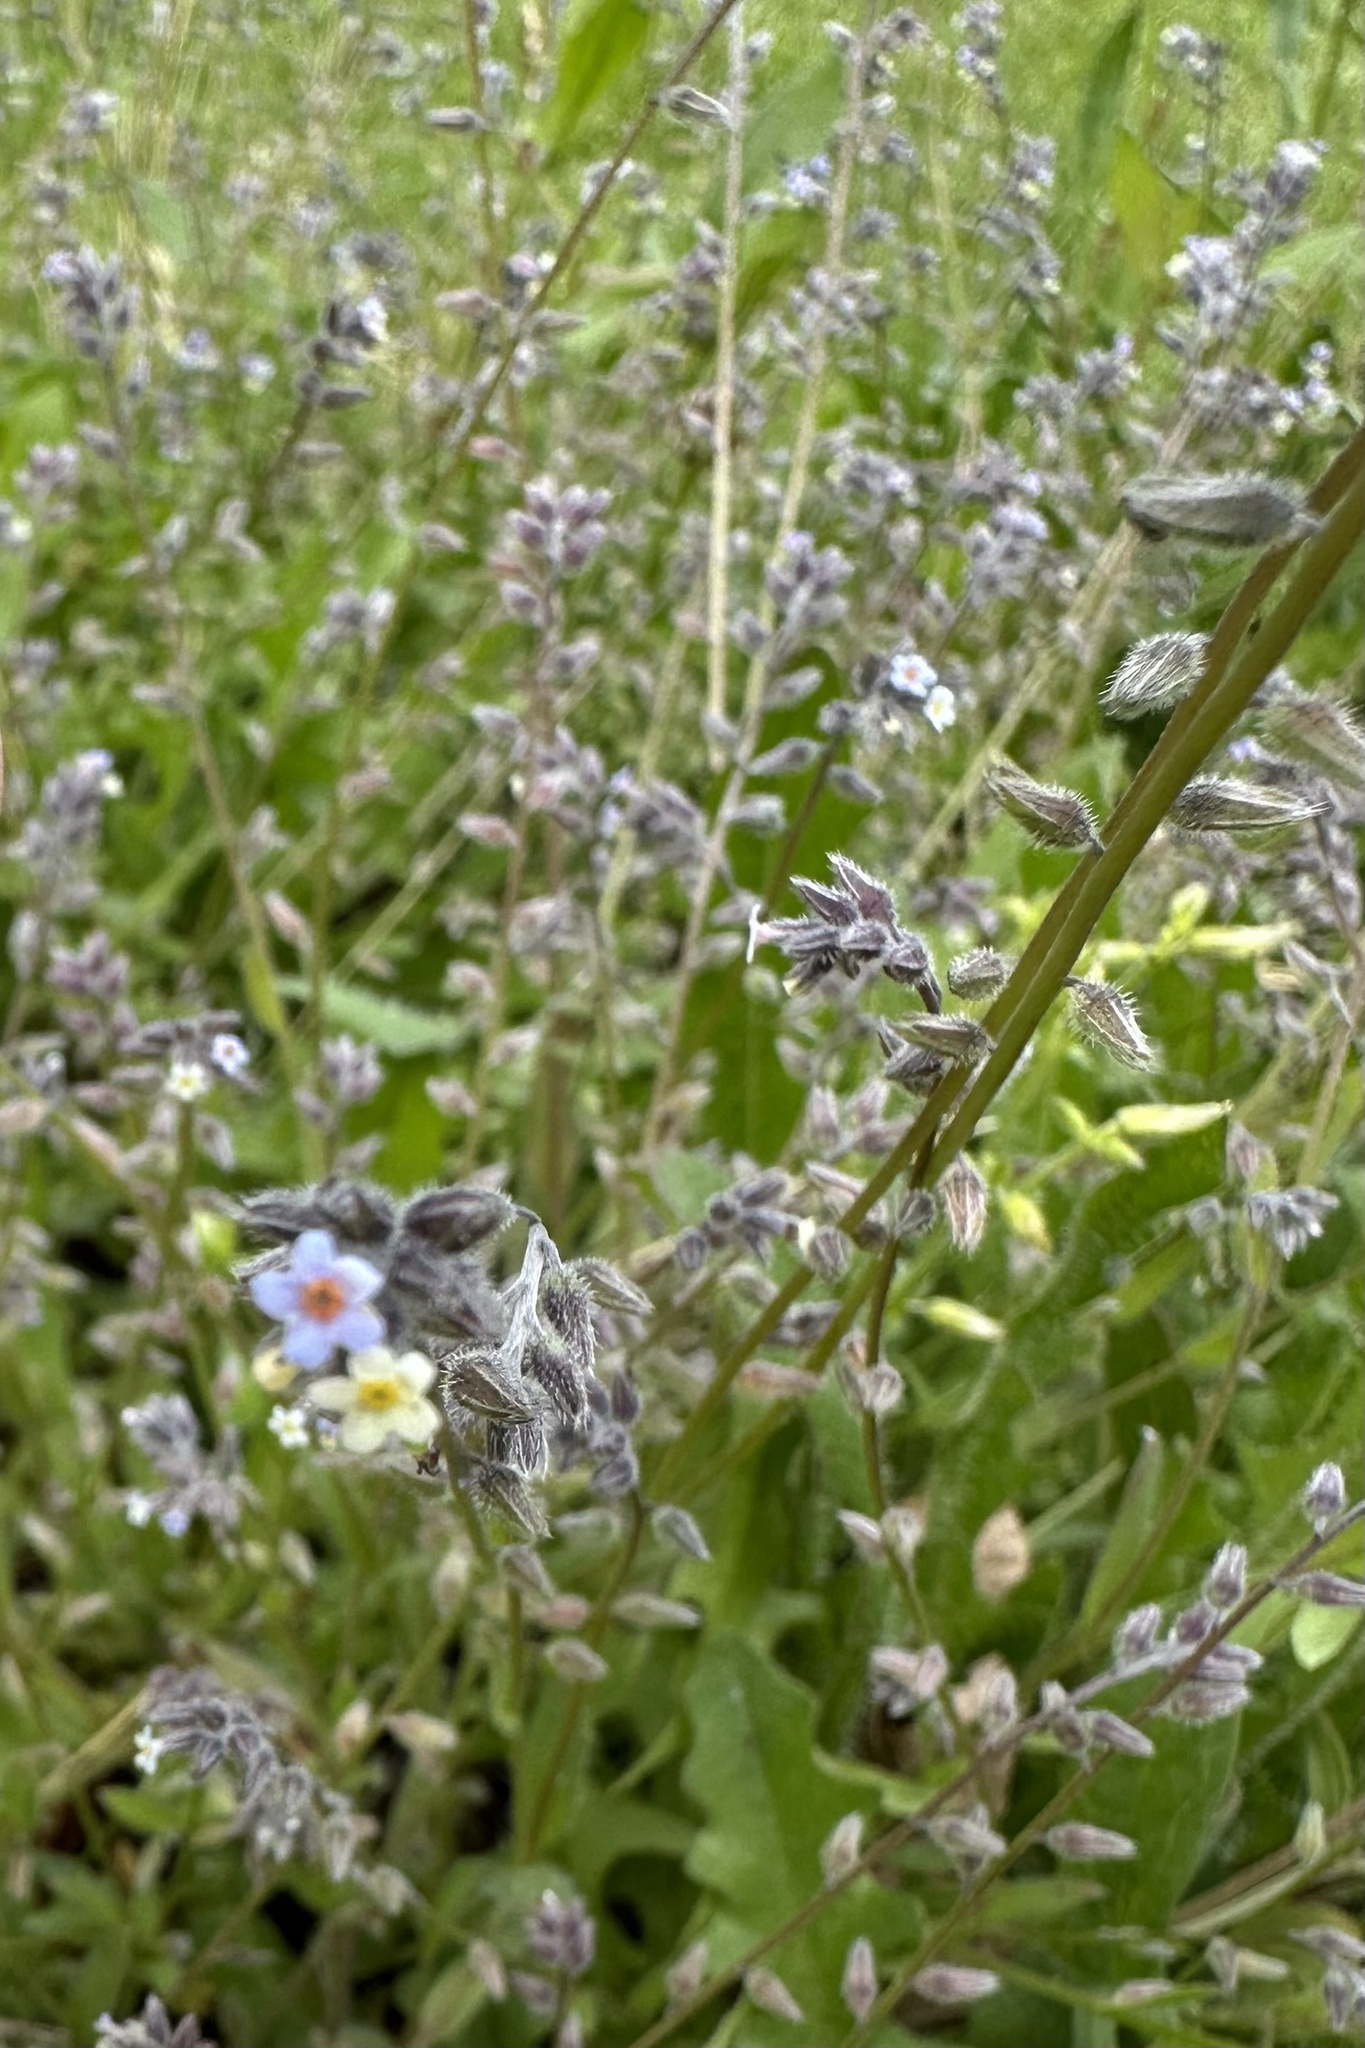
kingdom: Plantae
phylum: Tracheophyta
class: Magnoliopsida
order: Boraginales
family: Boraginaceae
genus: Myosotis
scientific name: Myosotis discolor
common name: Changing forget-me-not
